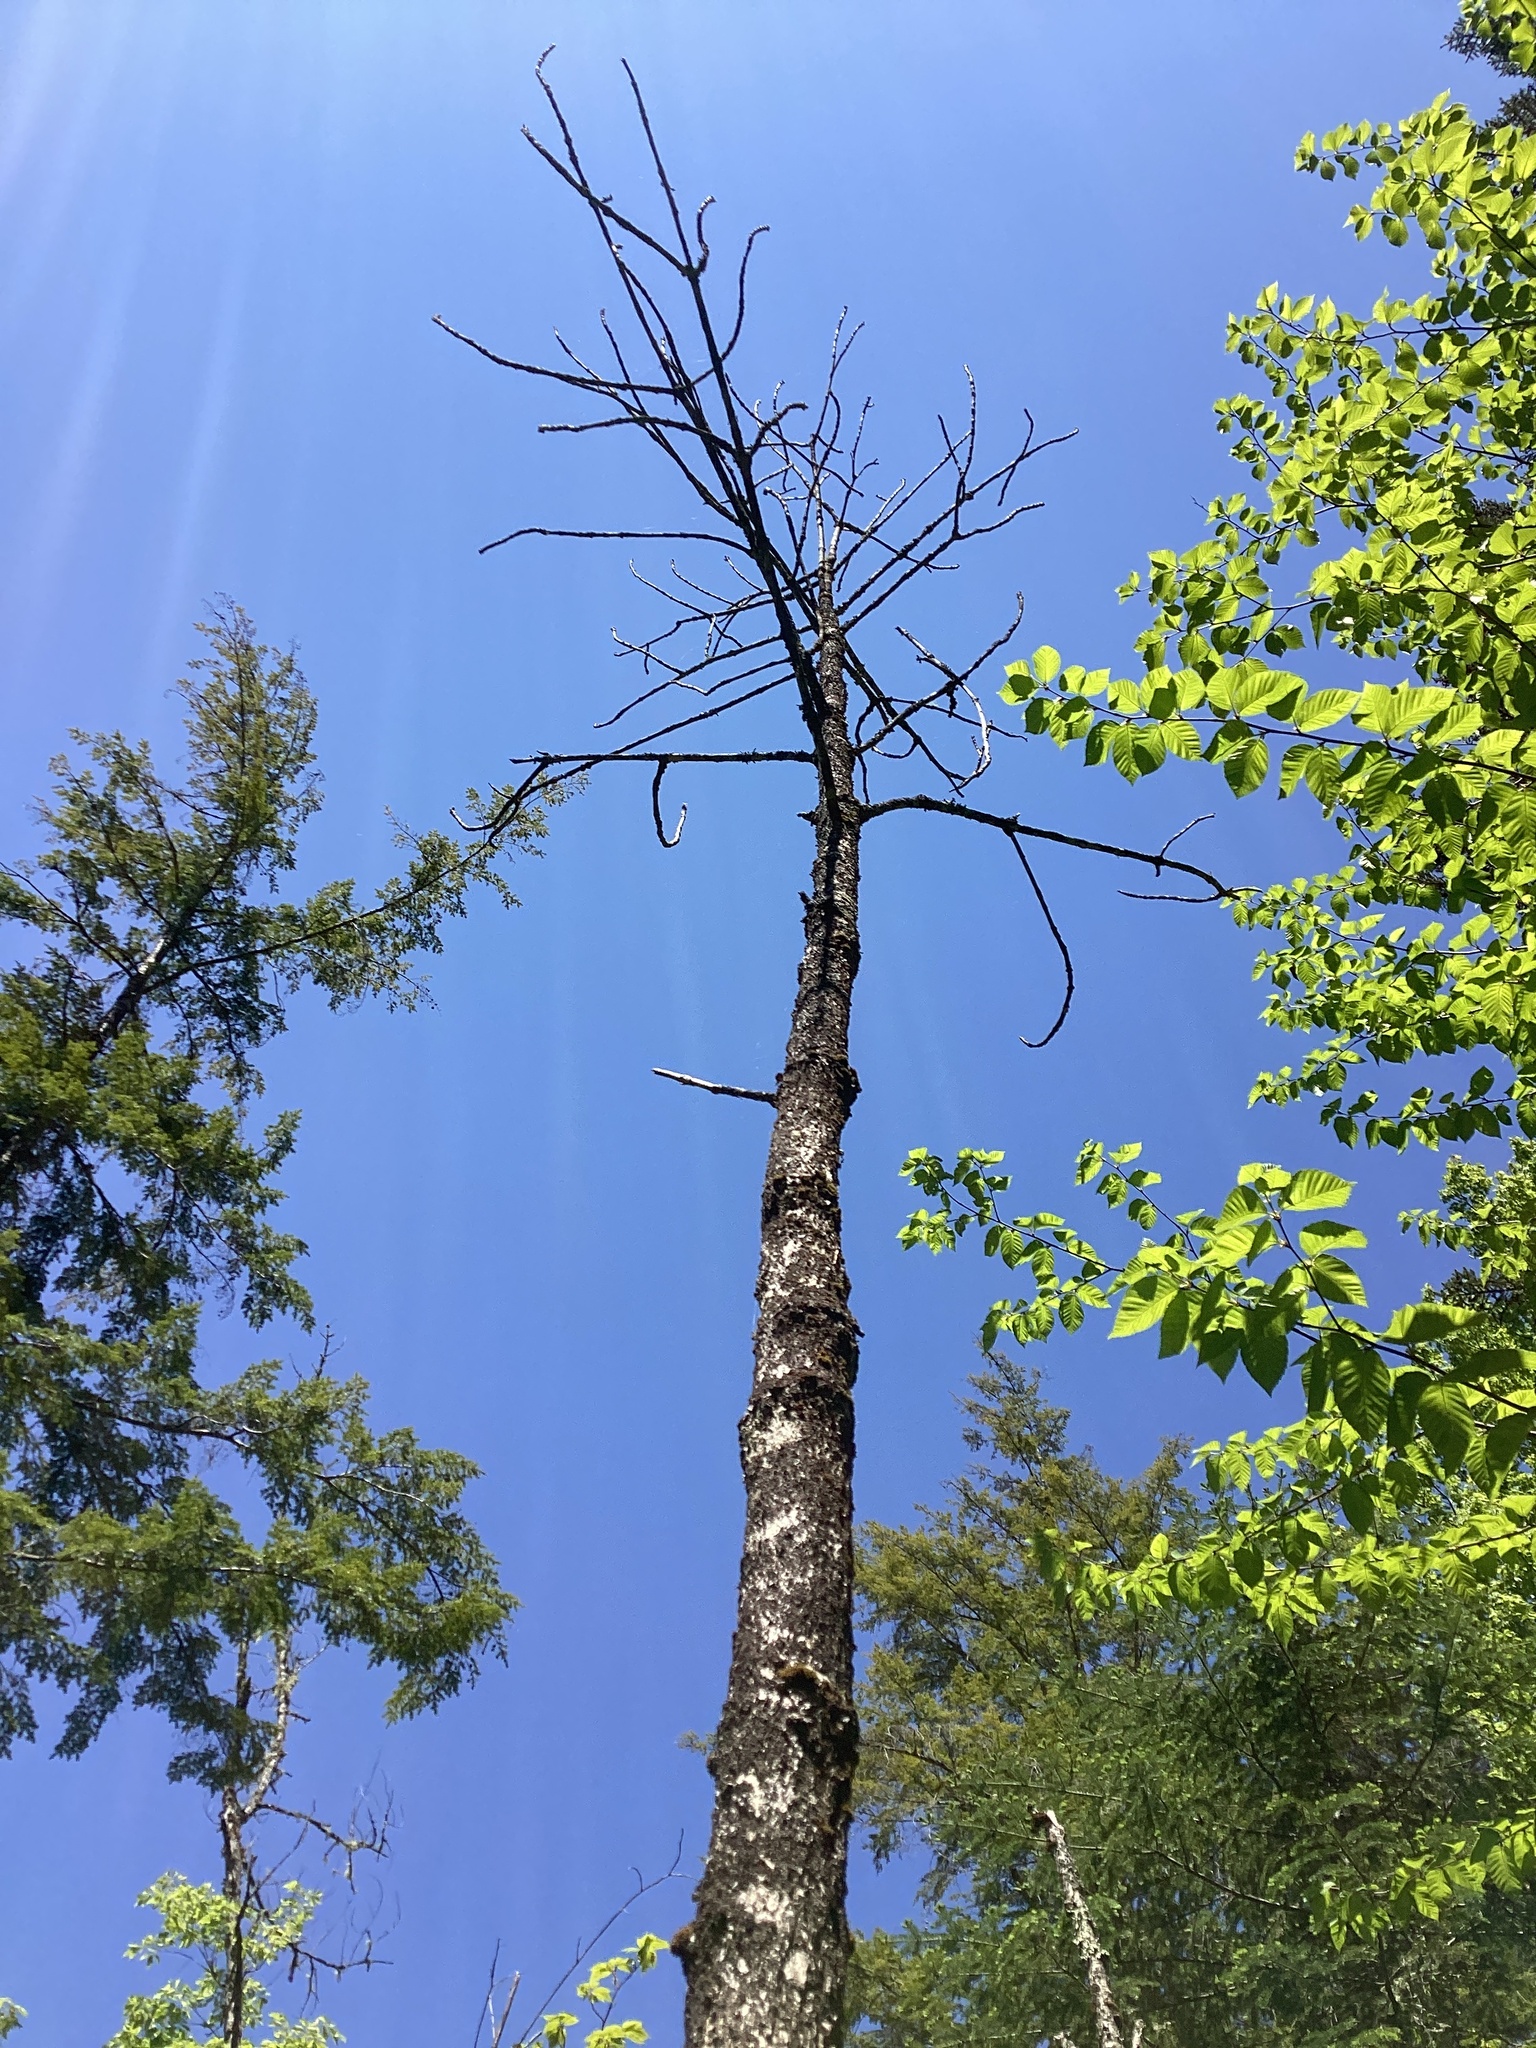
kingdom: Plantae
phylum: Tracheophyta
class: Magnoliopsida
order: Lamiales
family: Oleaceae
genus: Fraxinus
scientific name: Fraxinus nigra
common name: Black ash
